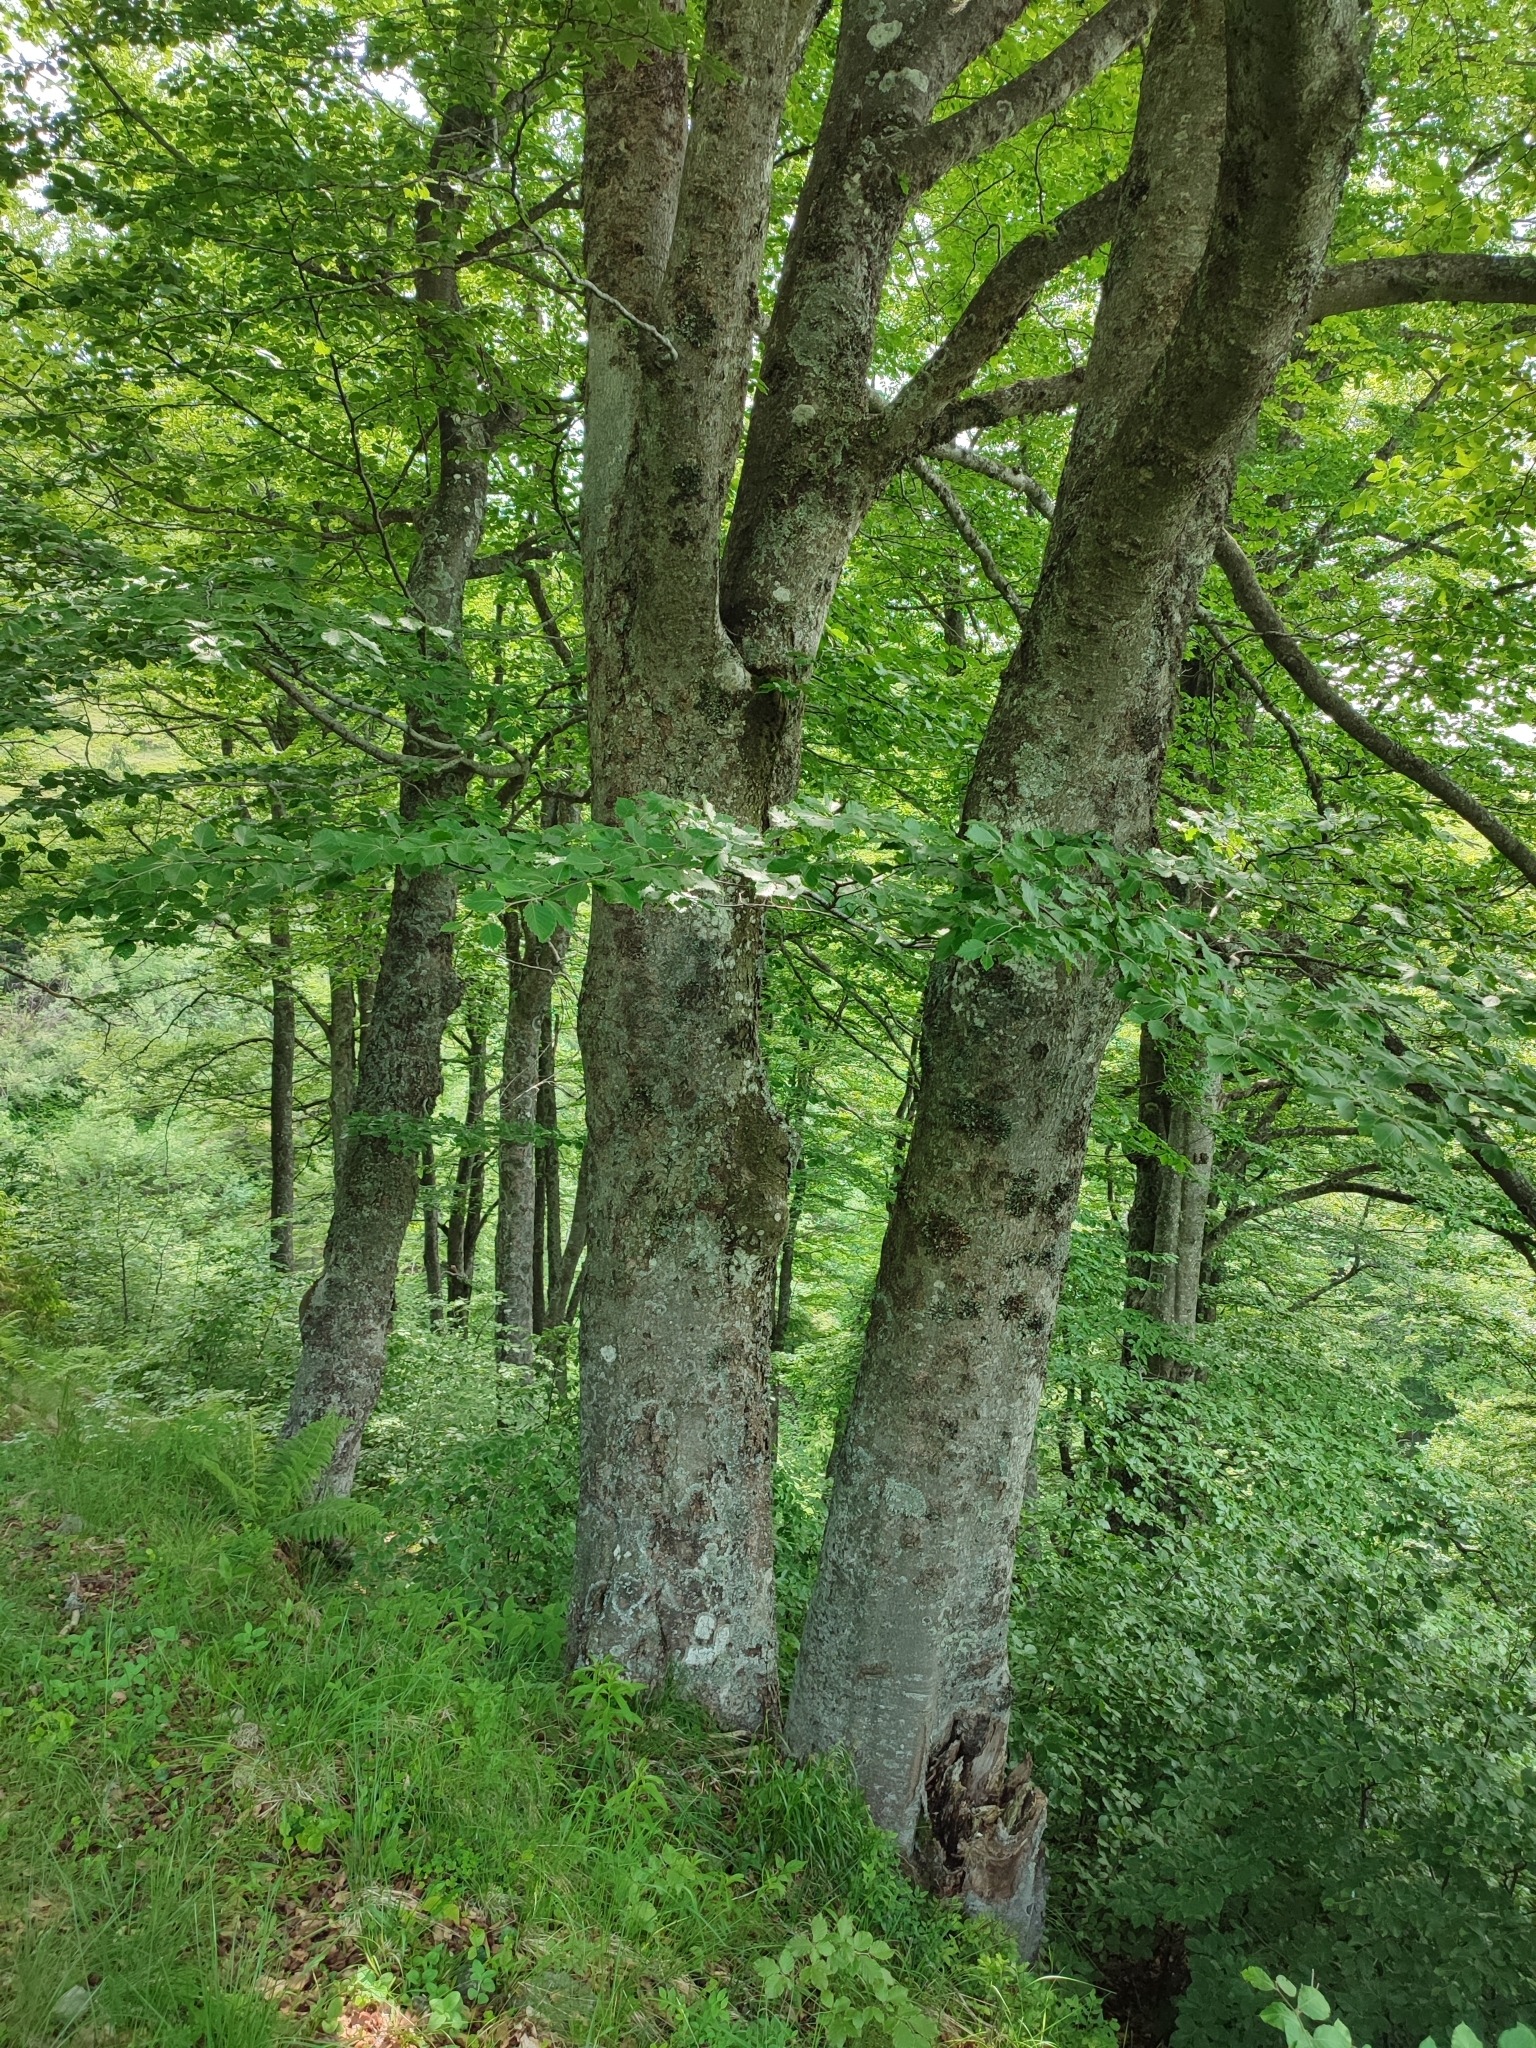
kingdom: Plantae
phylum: Tracheophyta
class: Magnoliopsida
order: Fagales
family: Fagaceae
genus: Fagus
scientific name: Fagus sylvatica
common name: Beech
